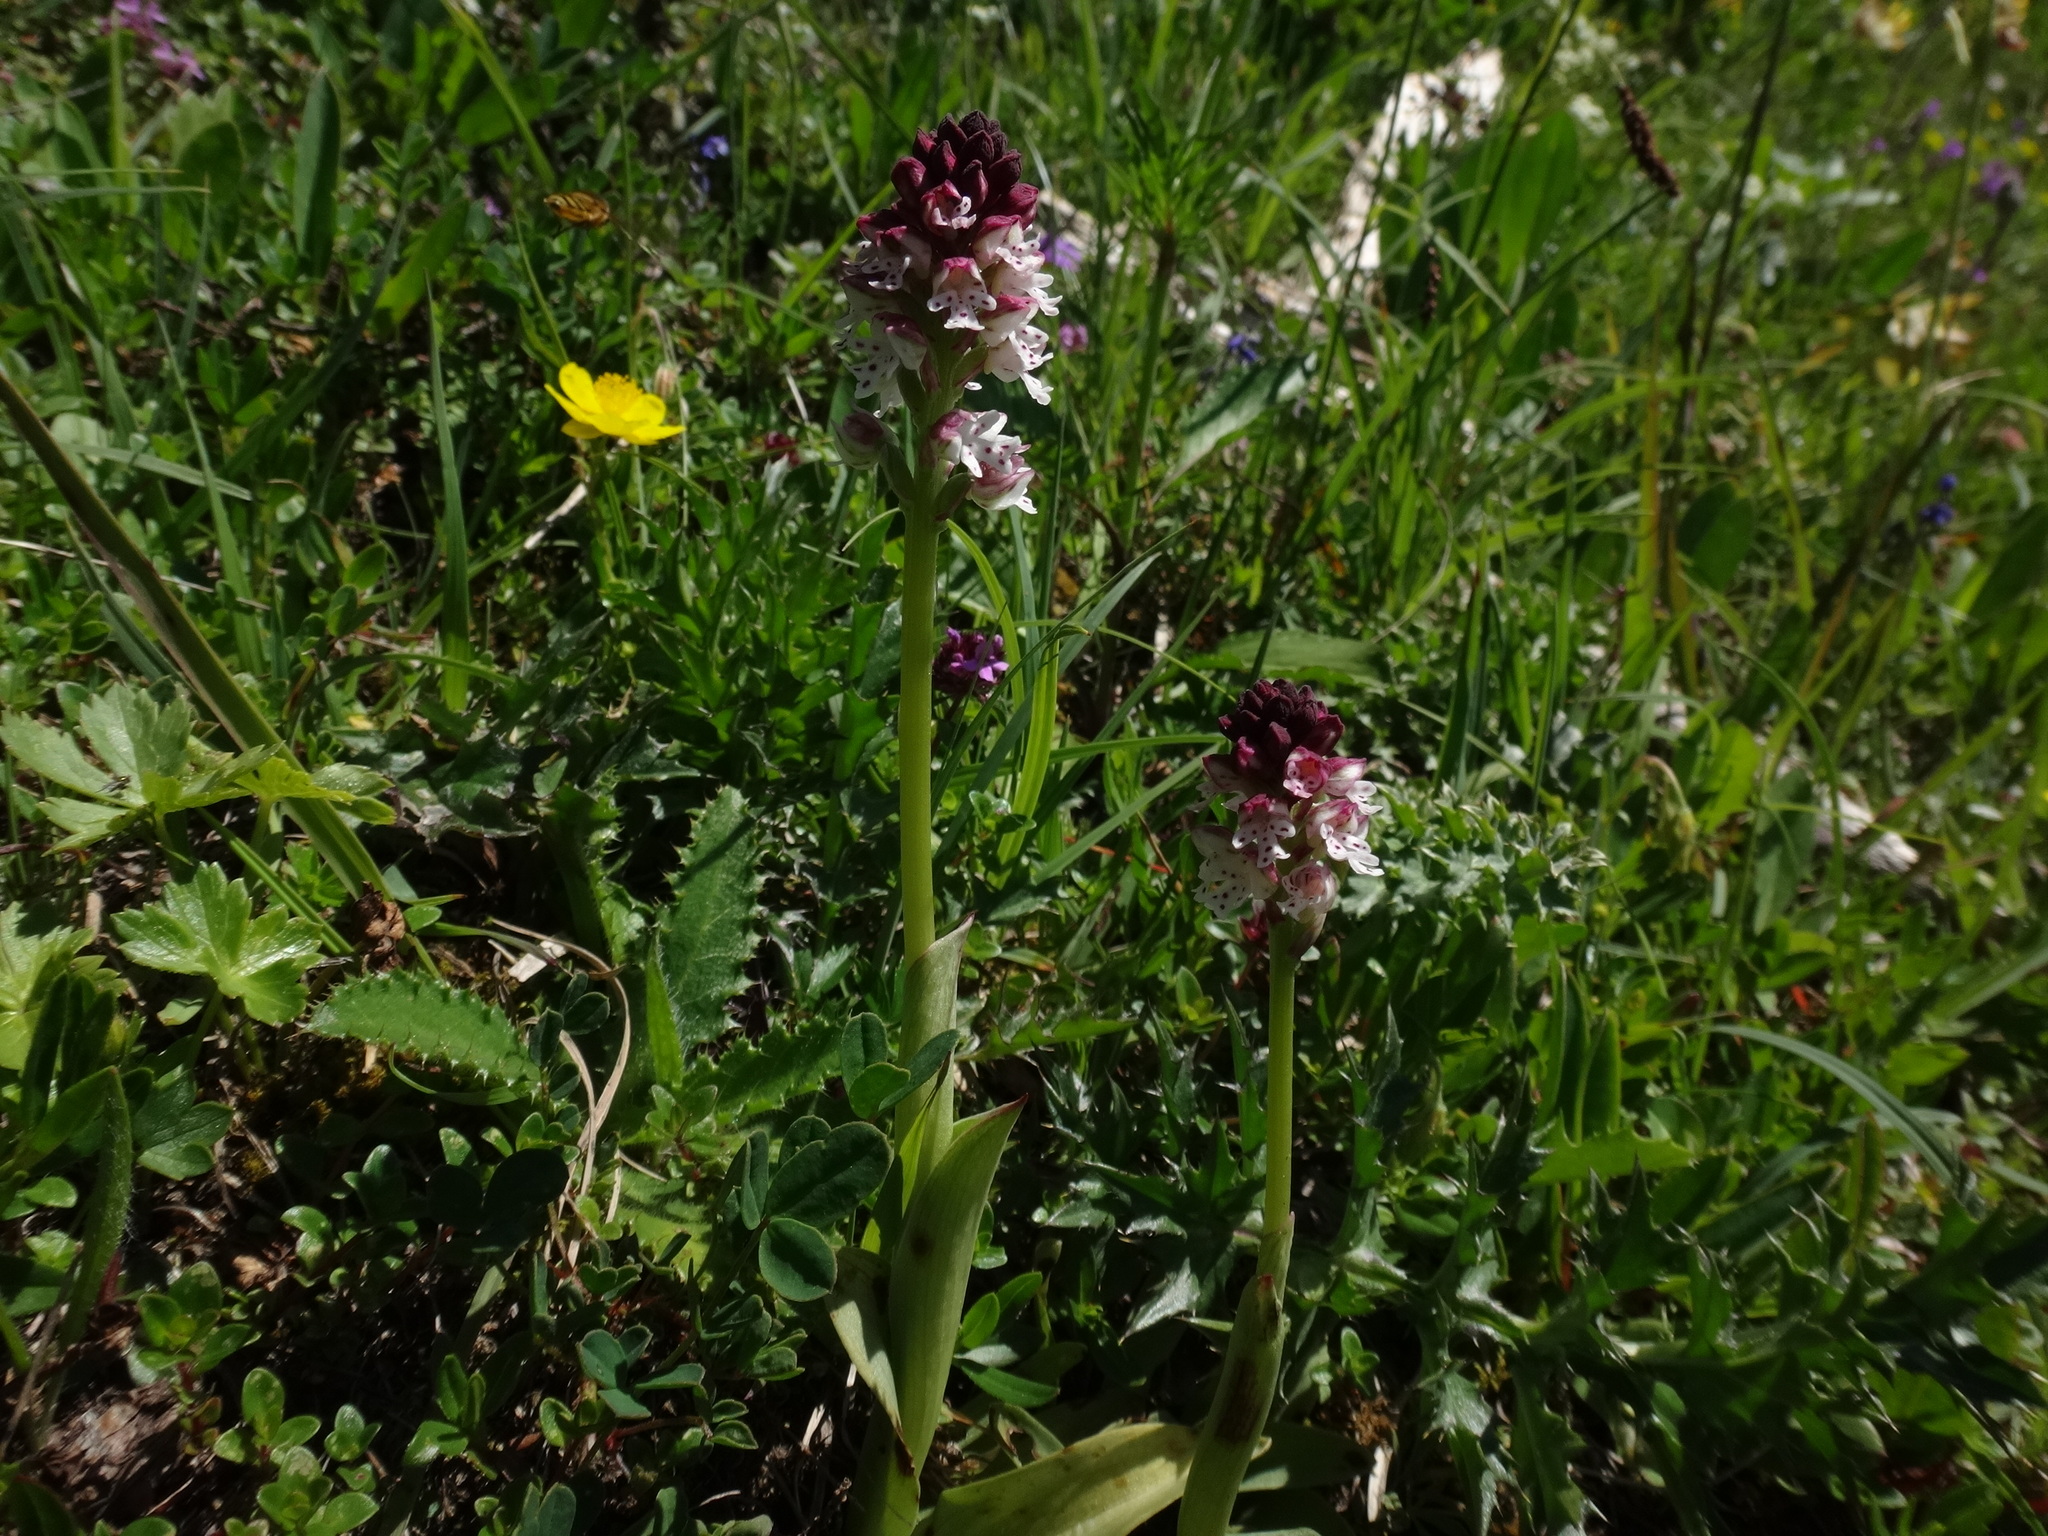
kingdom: Plantae
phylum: Tracheophyta
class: Liliopsida
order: Asparagales
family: Orchidaceae
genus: Neotinea
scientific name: Neotinea ustulata
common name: Burnt orchid
